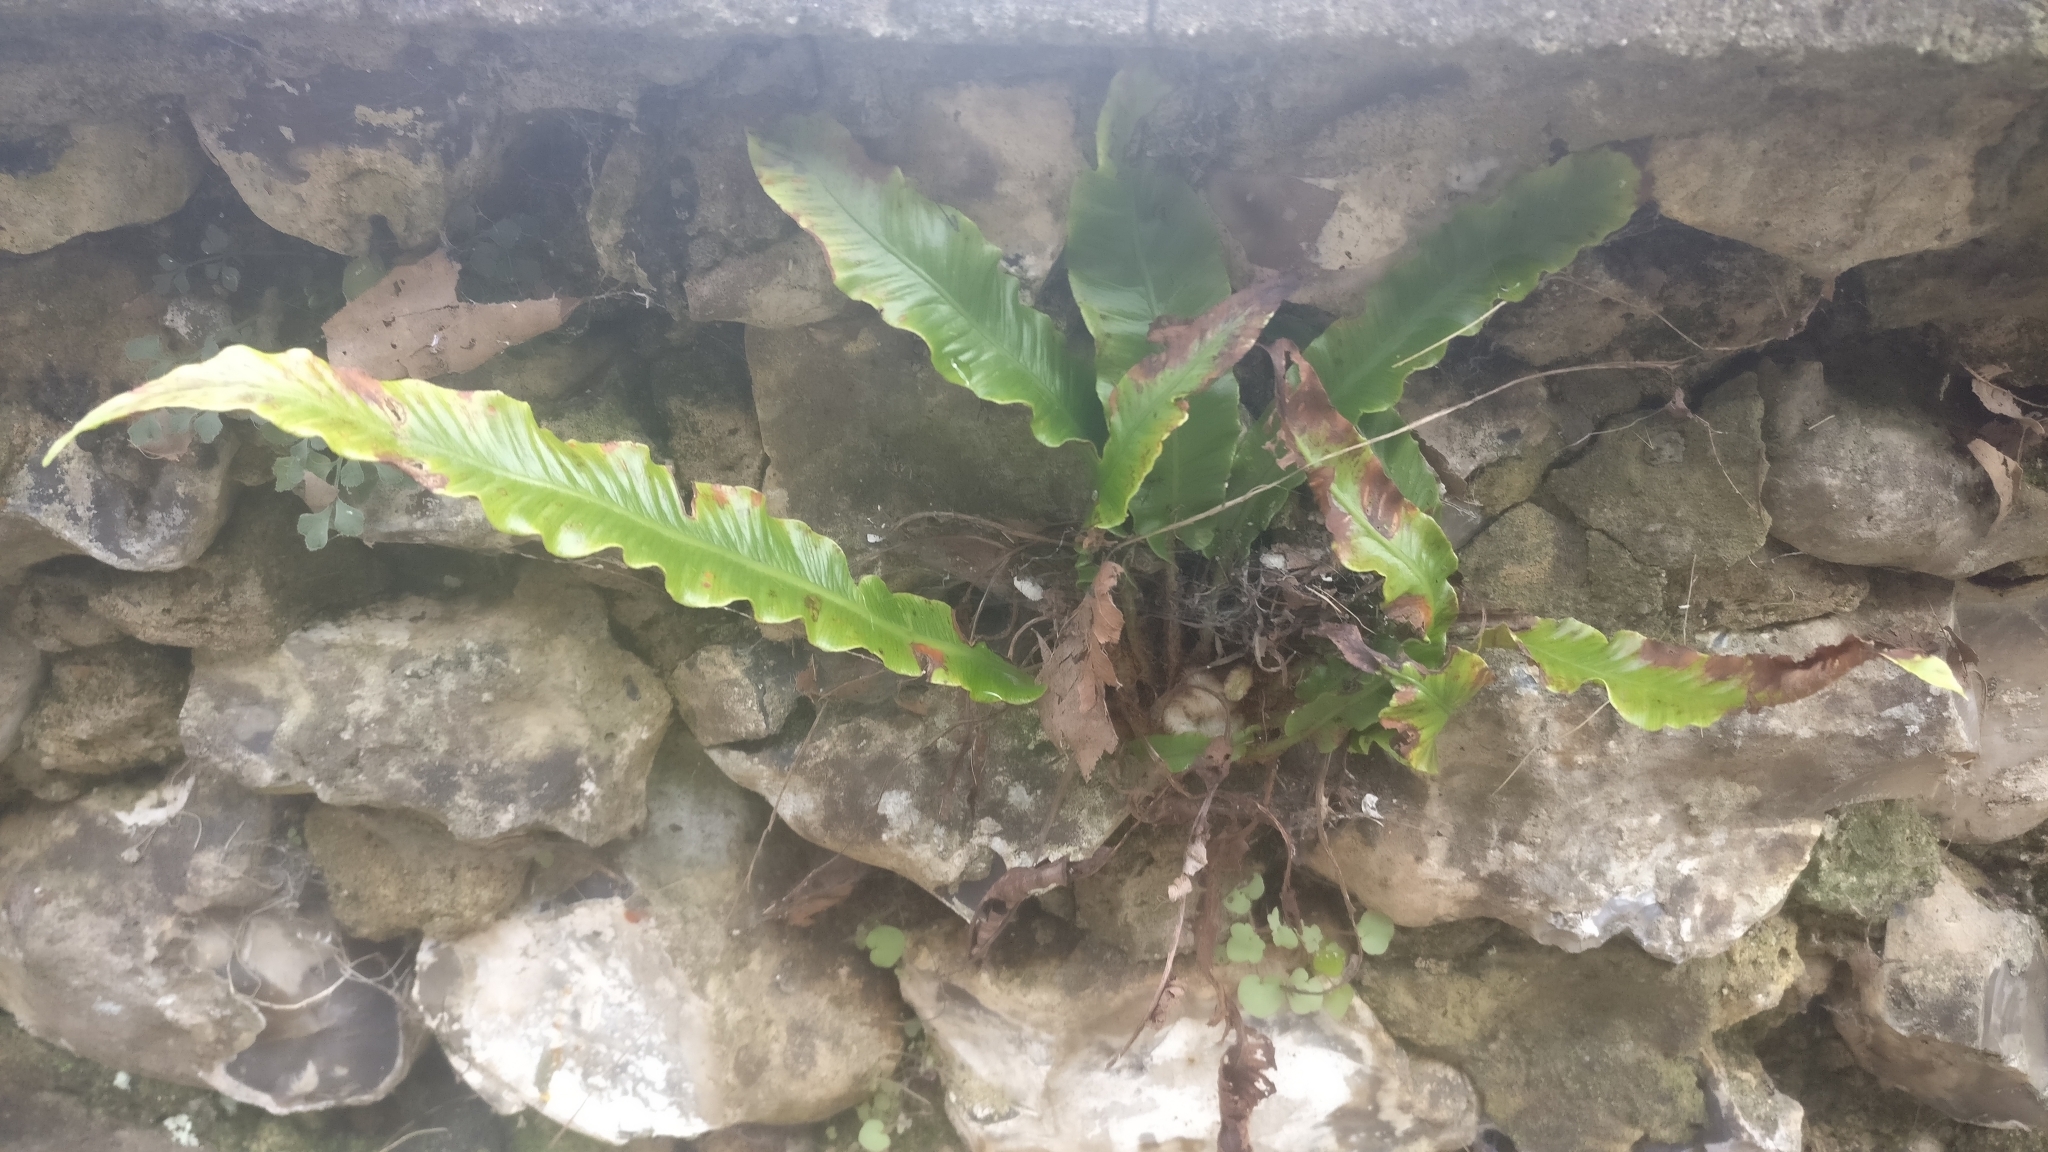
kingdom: Plantae
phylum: Tracheophyta
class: Polypodiopsida
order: Polypodiales
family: Aspleniaceae
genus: Asplenium
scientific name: Asplenium scolopendrium
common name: Hart's-tongue fern
